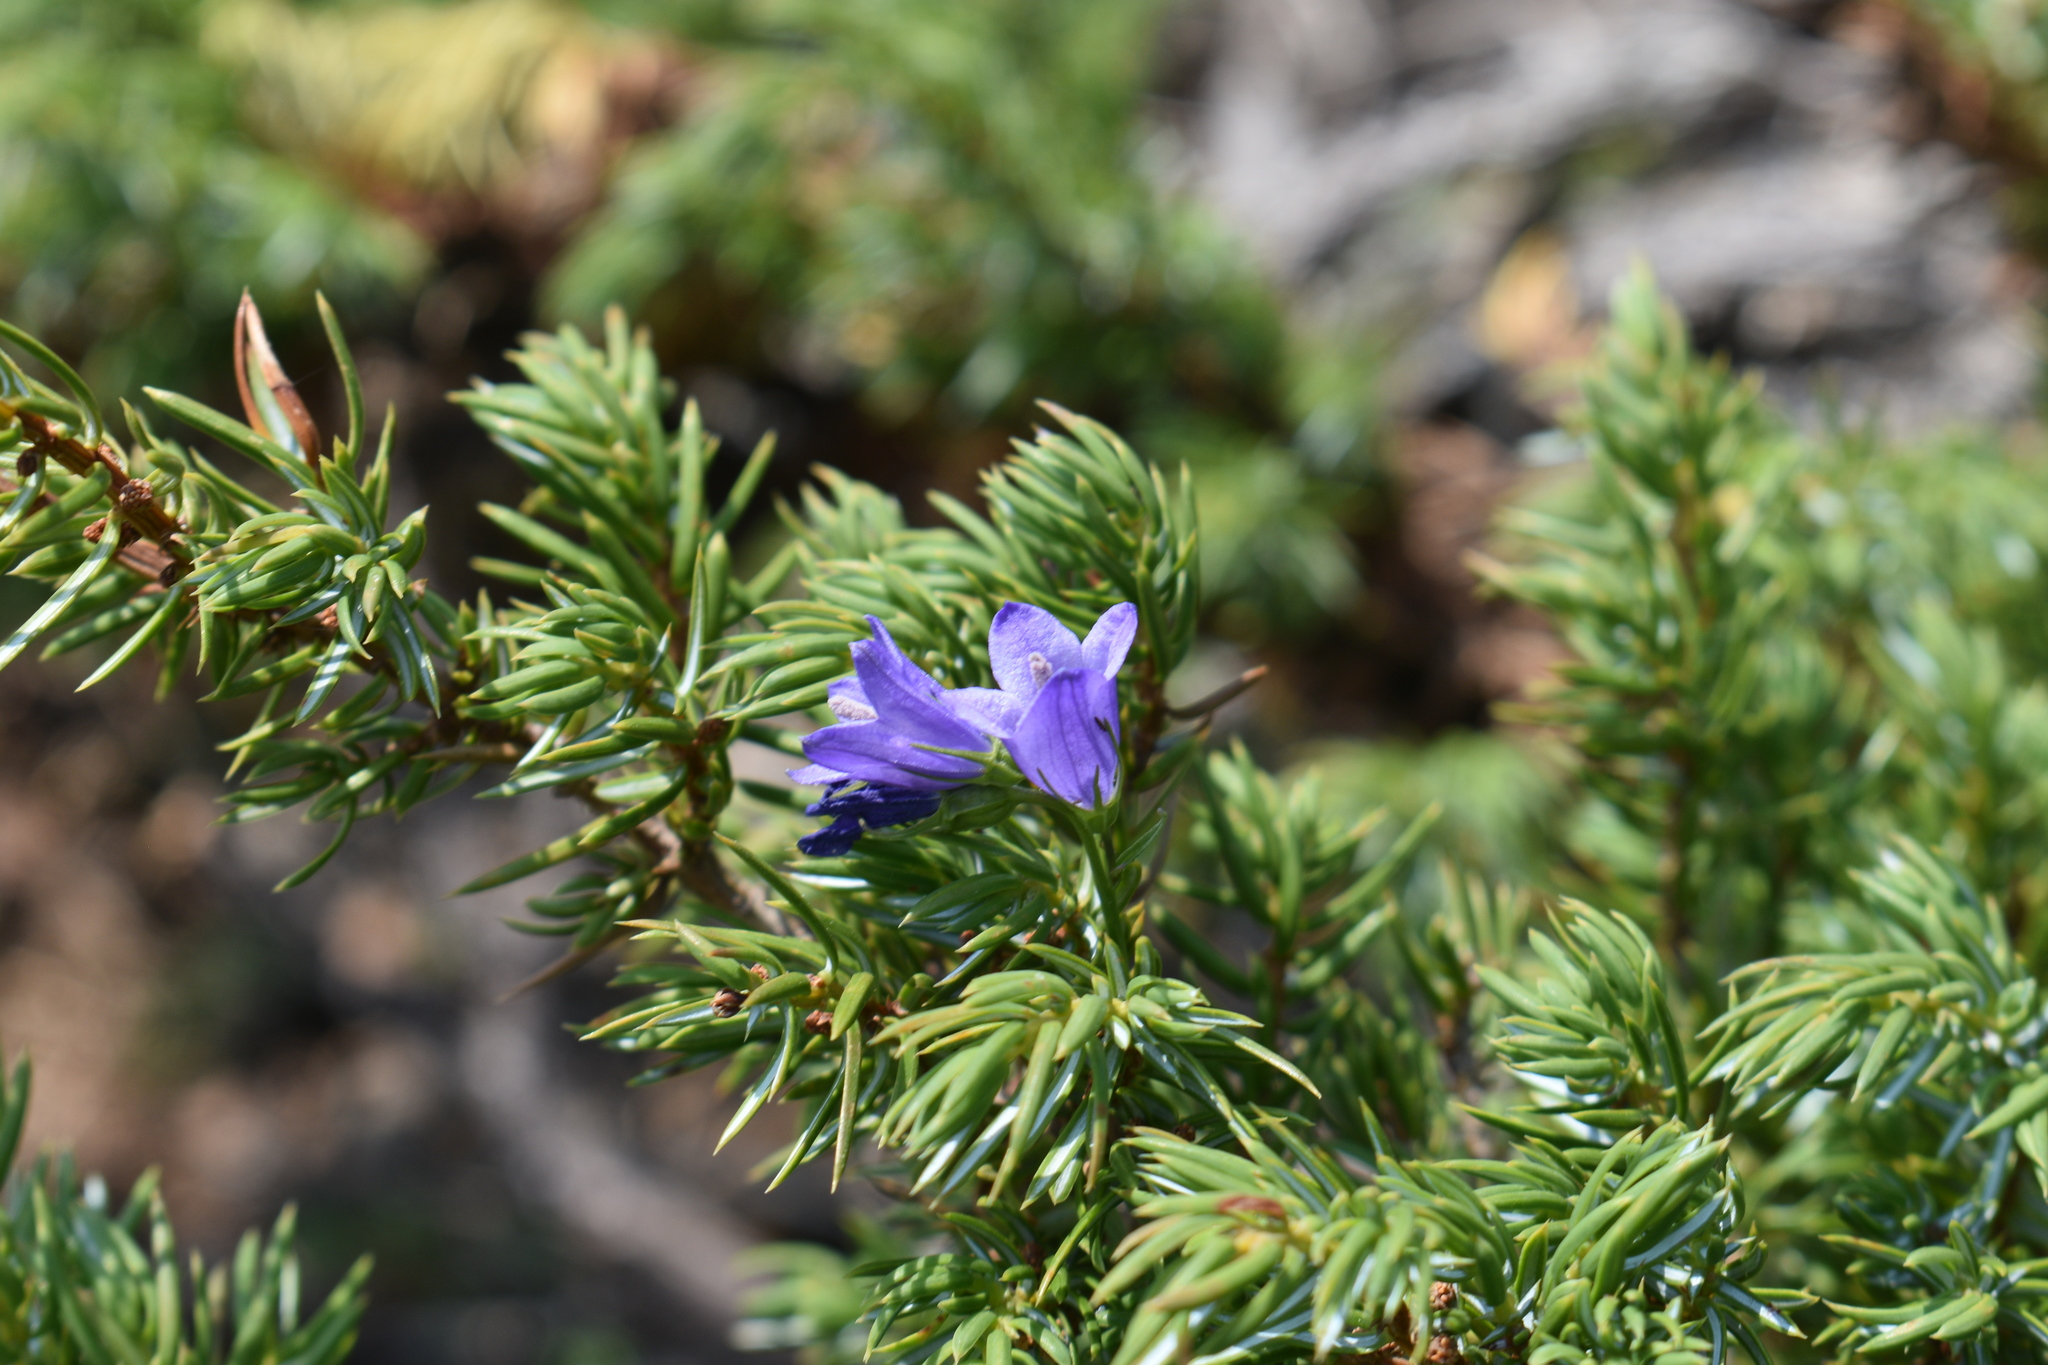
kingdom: Plantae
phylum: Tracheophyta
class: Magnoliopsida
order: Asterales
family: Campanulaceae
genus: Campanula
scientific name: Campanula petiolata
